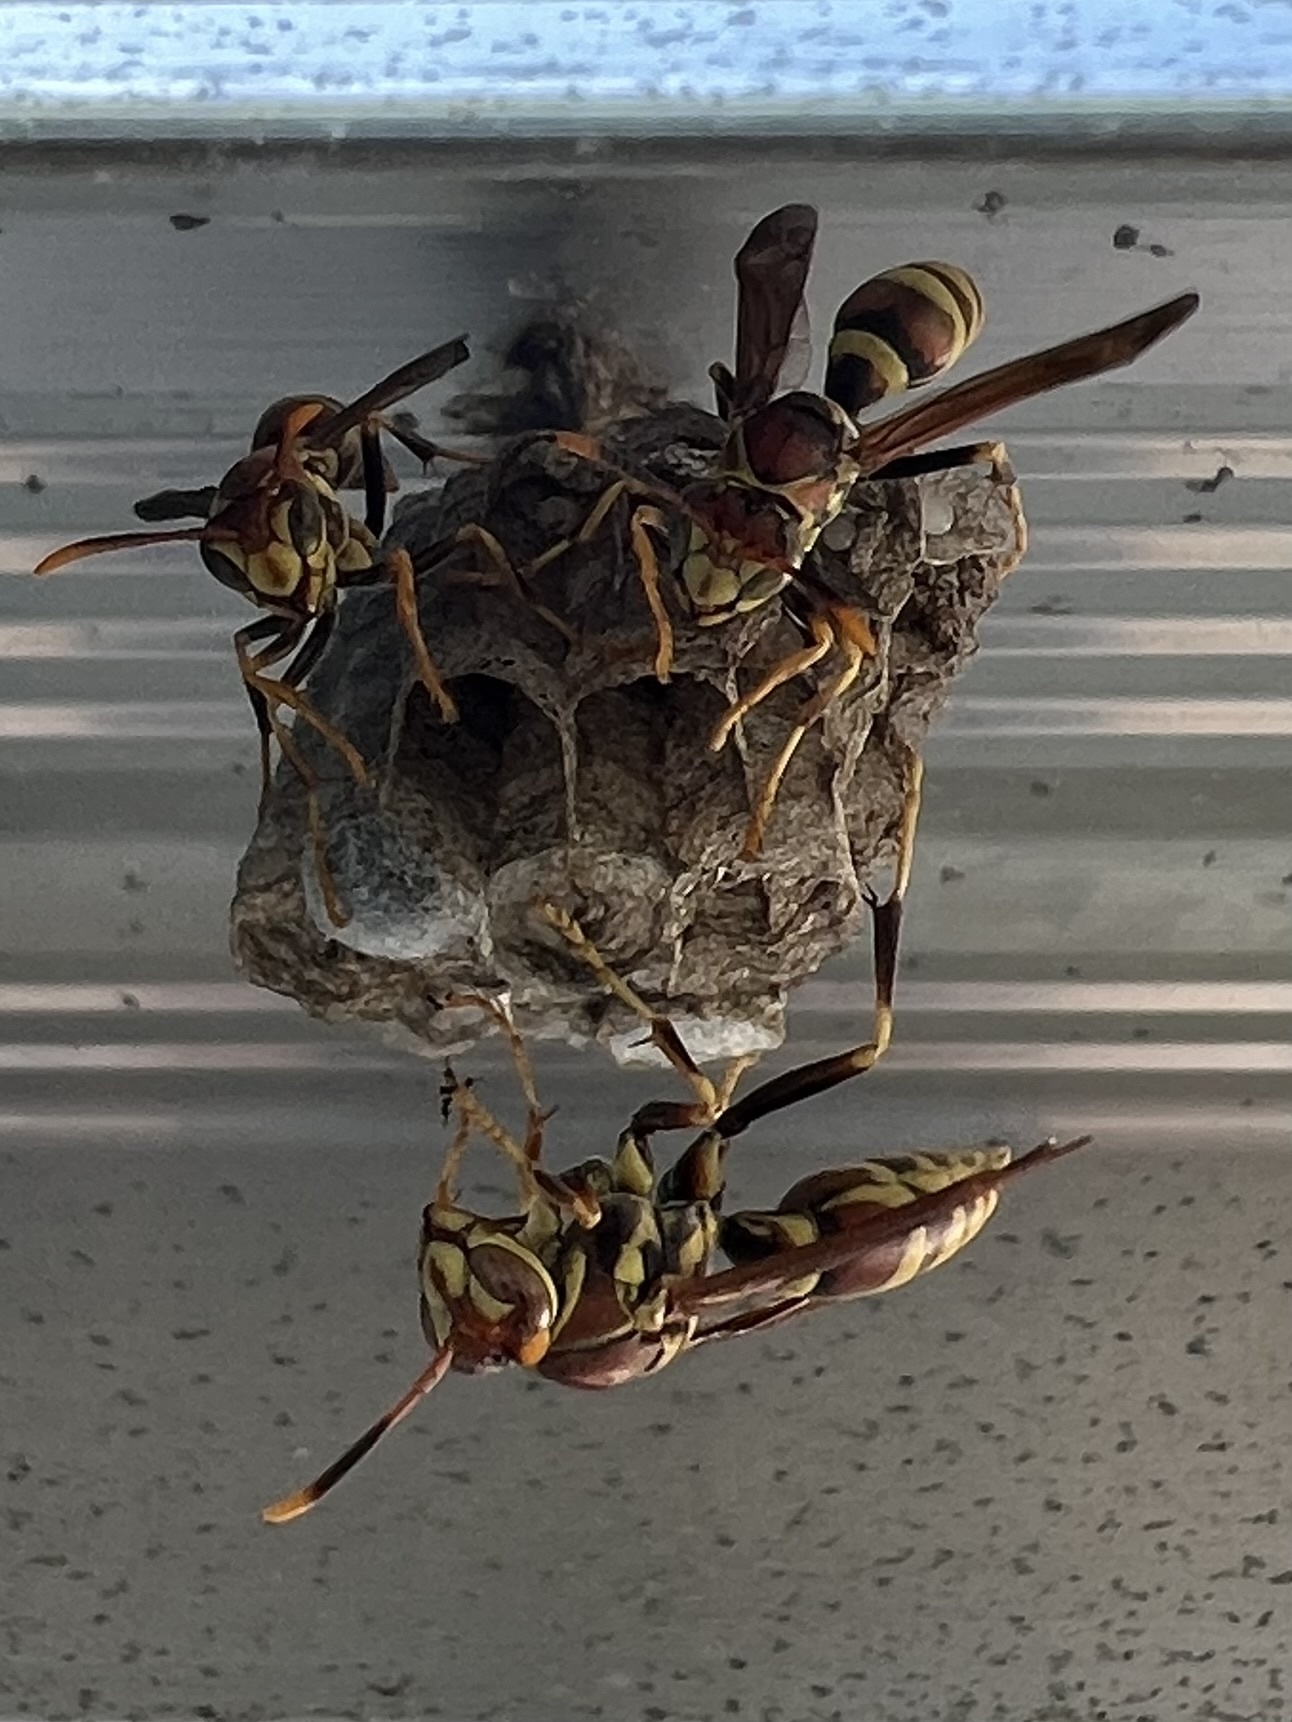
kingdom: Animalia
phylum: Arthropoda
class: Insecta
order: Hymenoptera
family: Eumenidae
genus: Polistes
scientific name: Polistes exclamans
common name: Paper wasp
